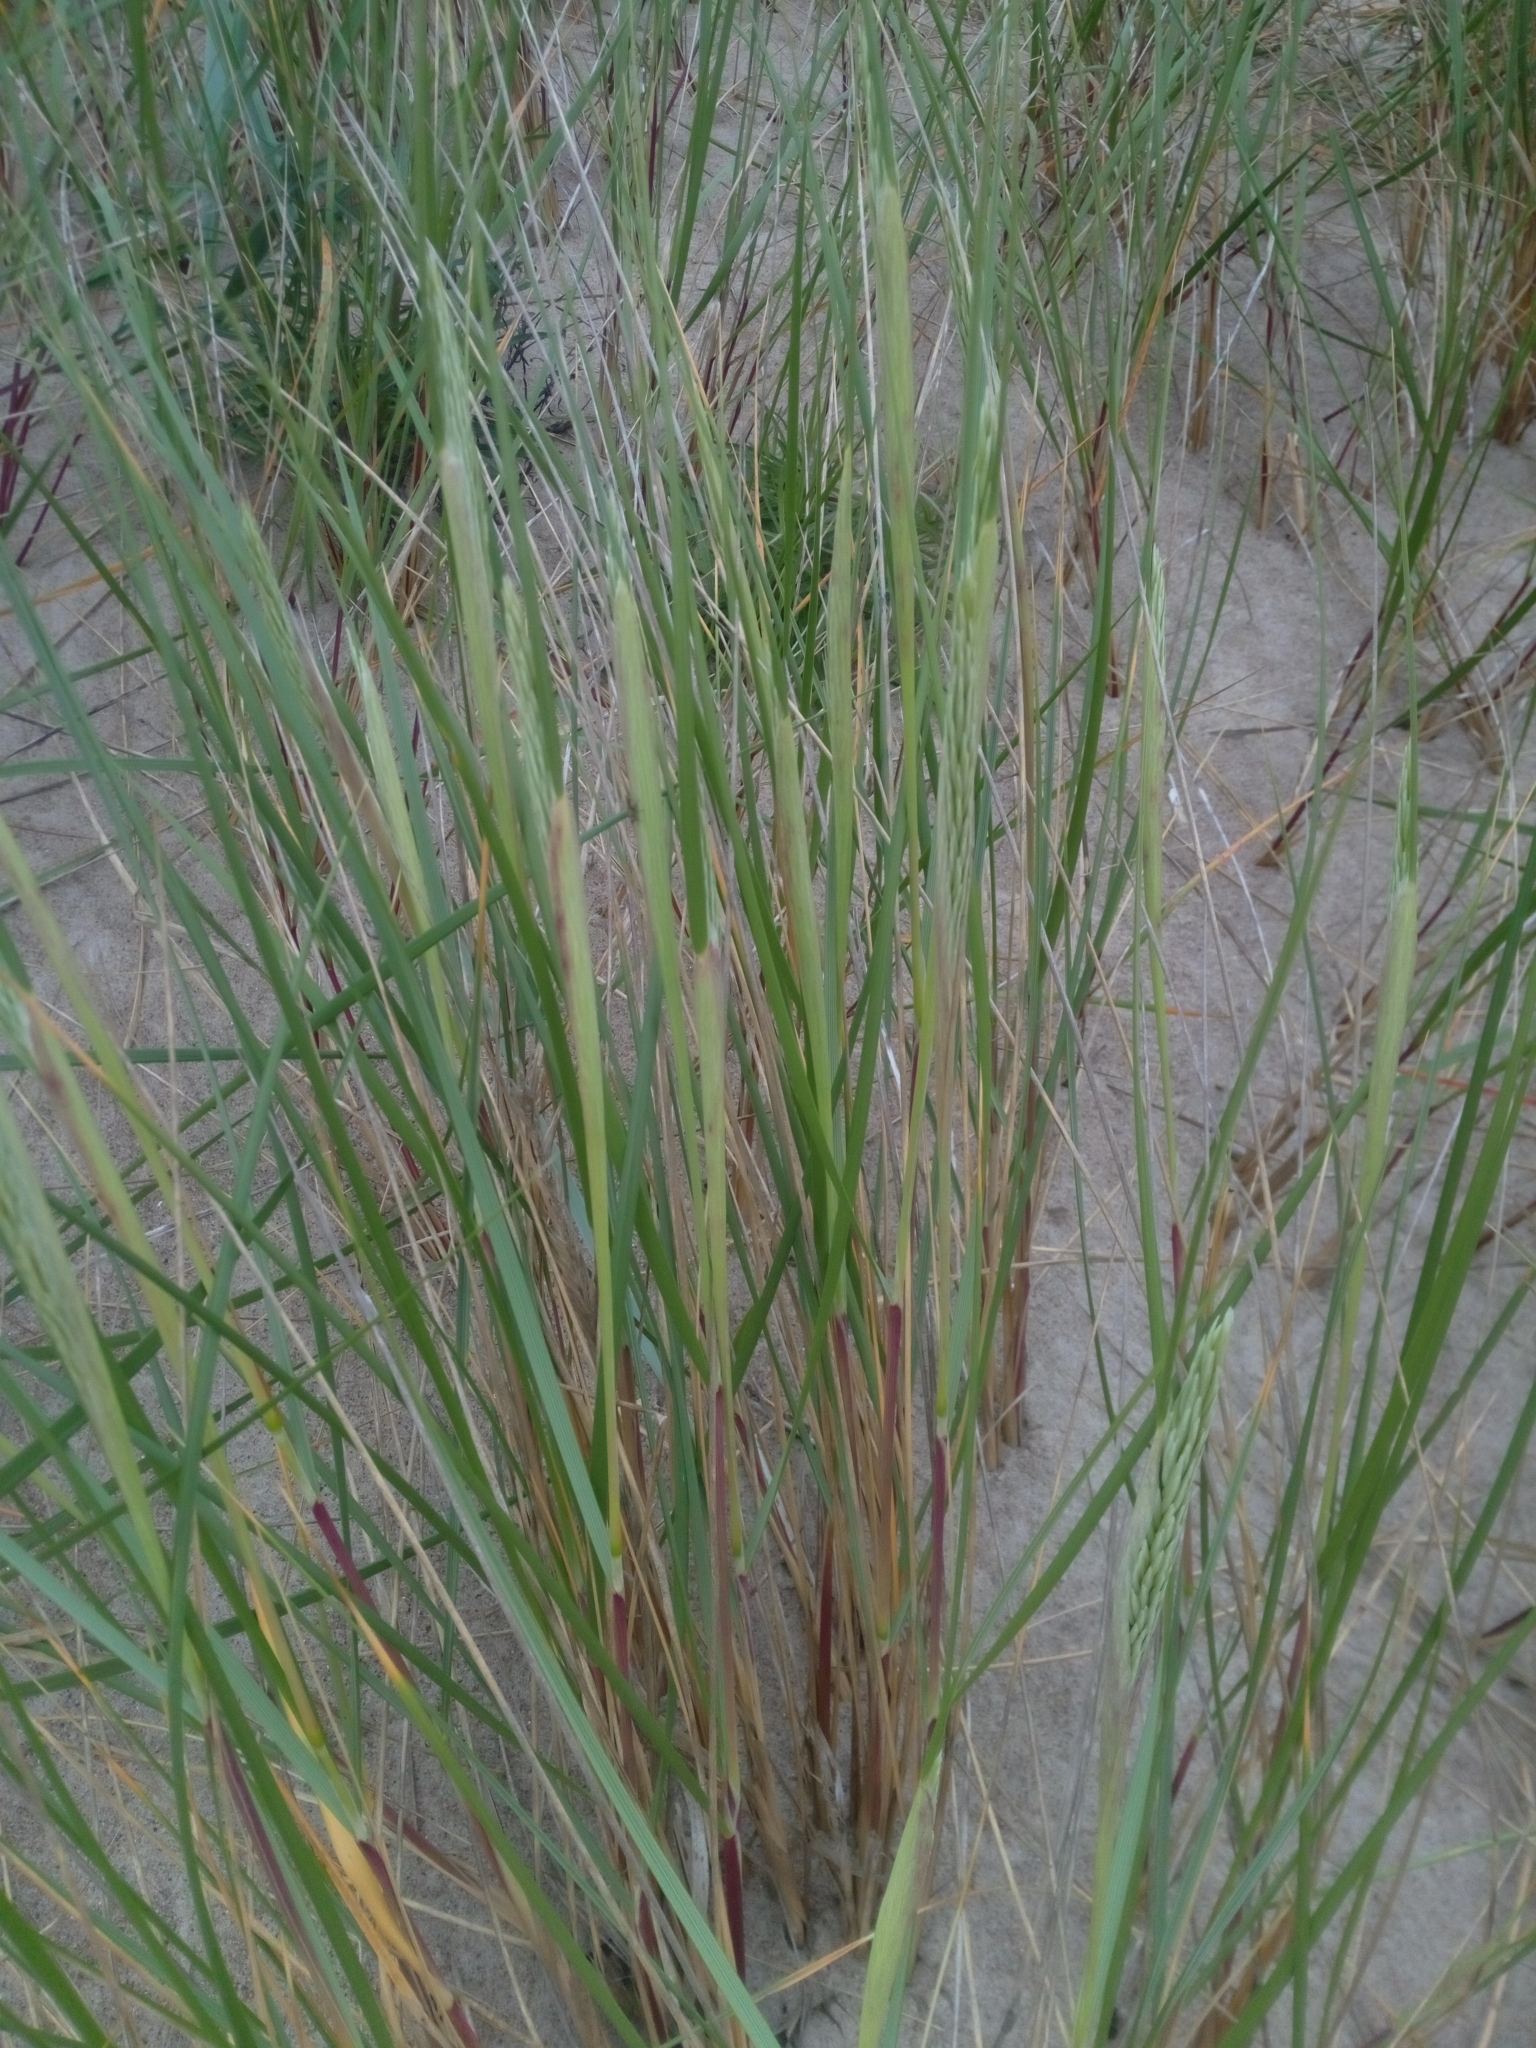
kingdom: Plantae
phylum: Tracheophyta
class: Liliopsida
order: Poales
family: Poaceae
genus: Calamagrostis
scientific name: Calamagrostis arenaria
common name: European beachgrass
